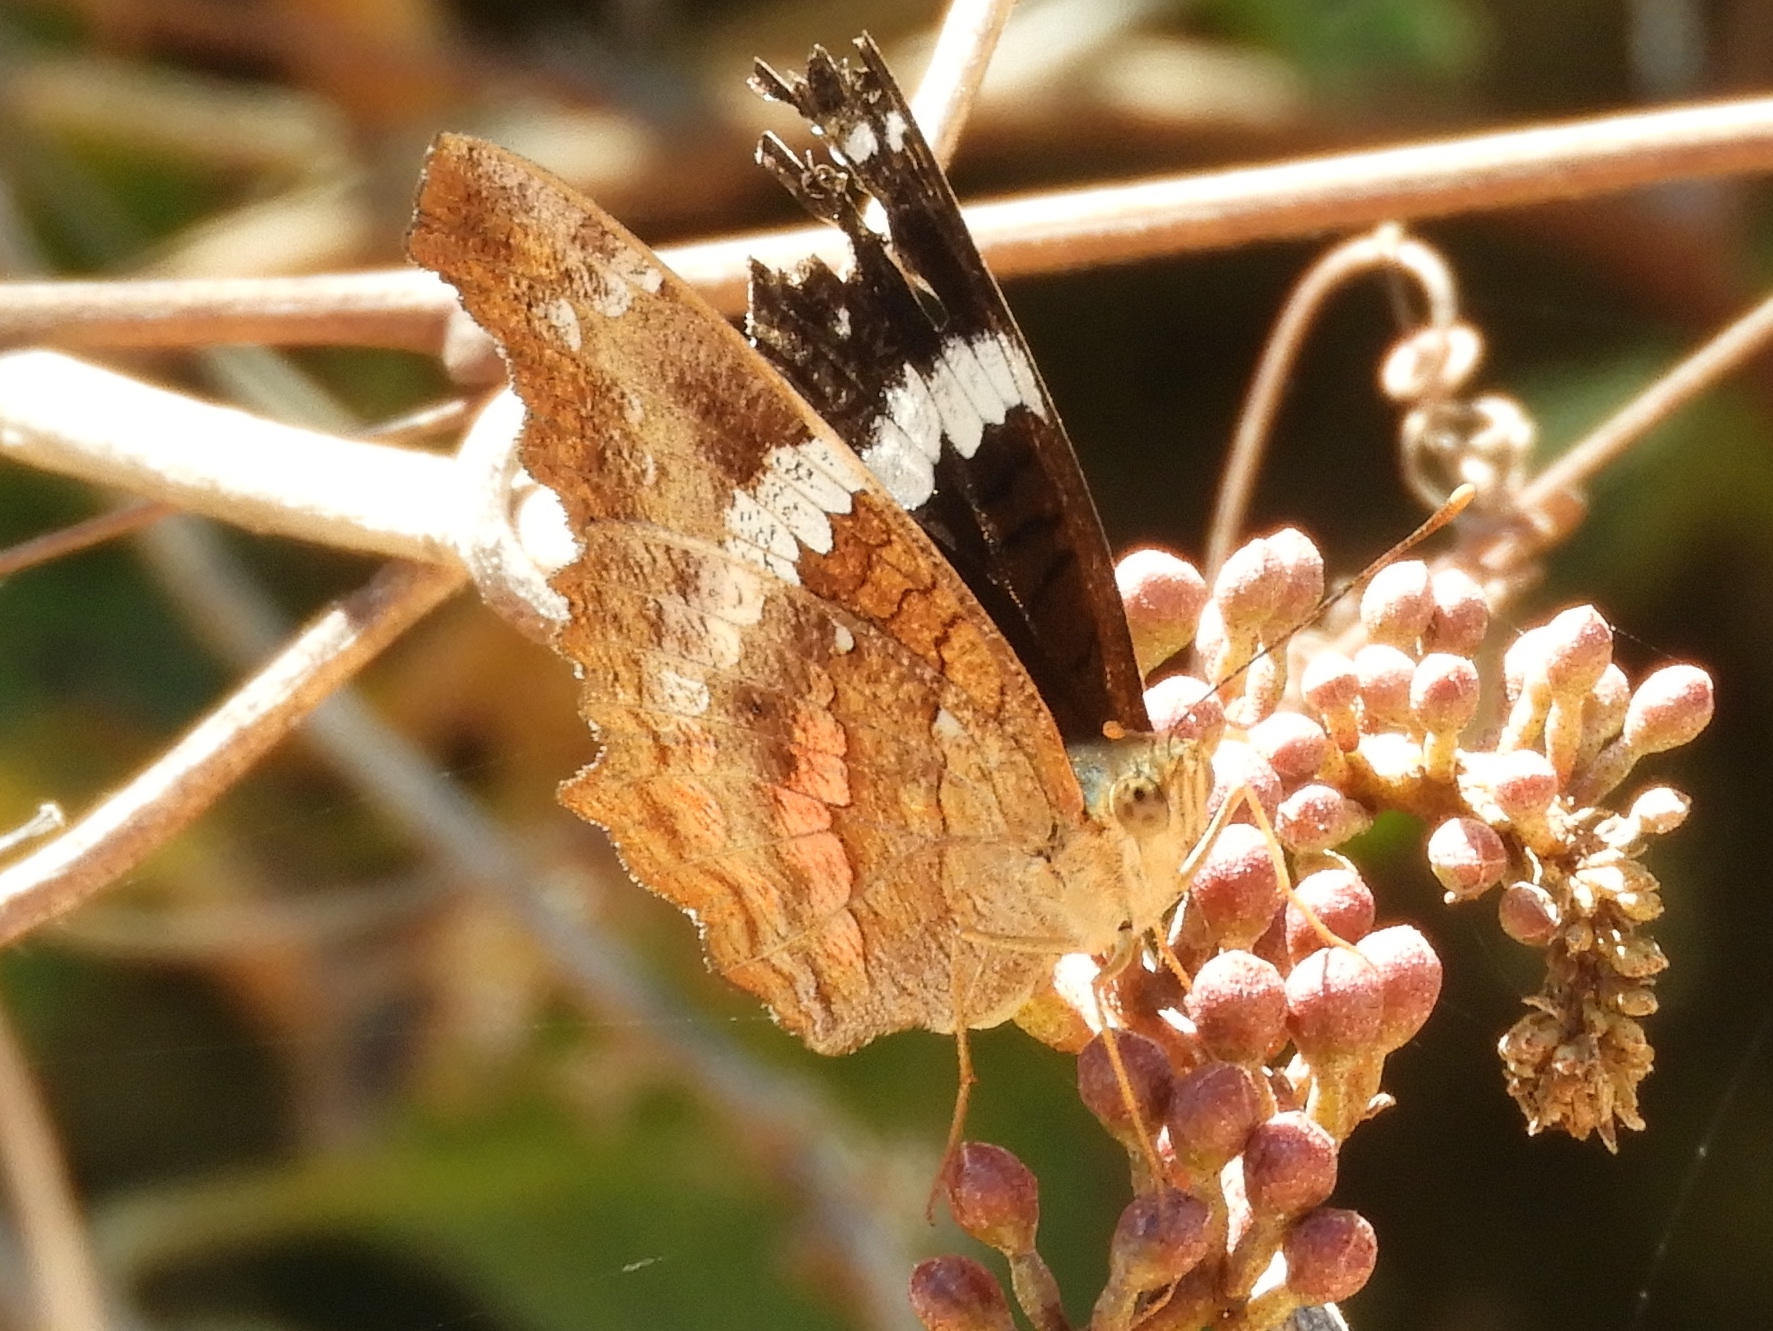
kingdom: Animalia
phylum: Arthropoda
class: Insecta
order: Lepidoptera
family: Nymphalidae
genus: Anartia
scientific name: Anartia fatima
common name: Banded peacock
